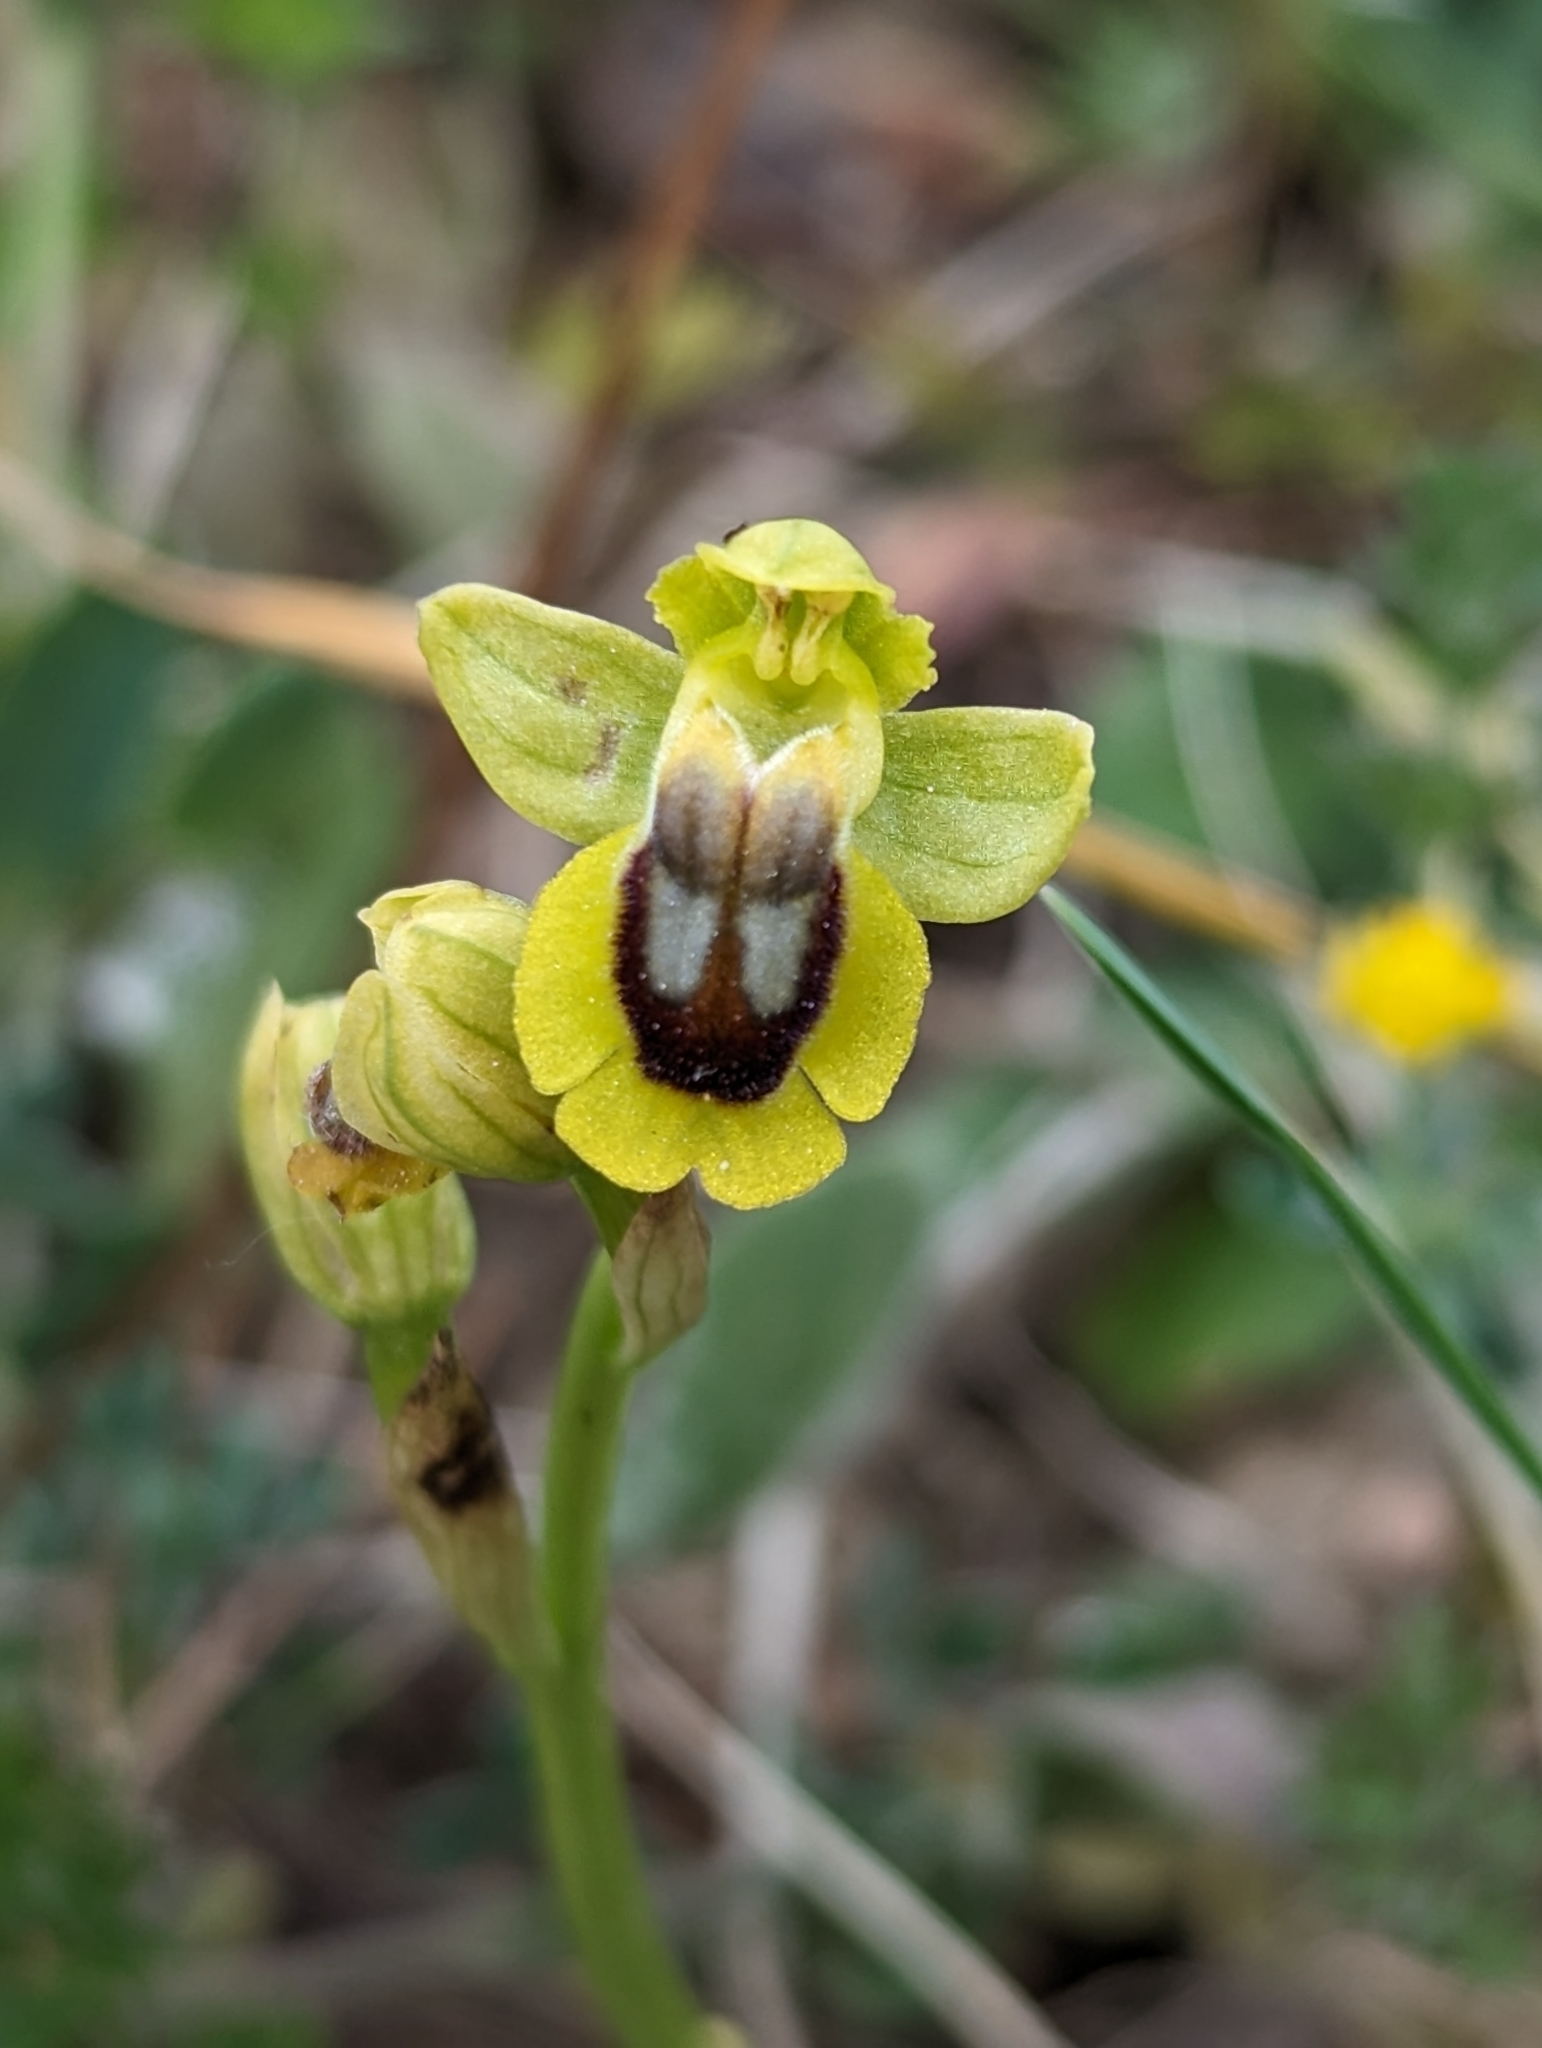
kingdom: Plantae
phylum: Tracheophyta
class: Liliopsida
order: Asparagales
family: Orchidaceae
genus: Ophrys
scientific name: Ophrys lutea
